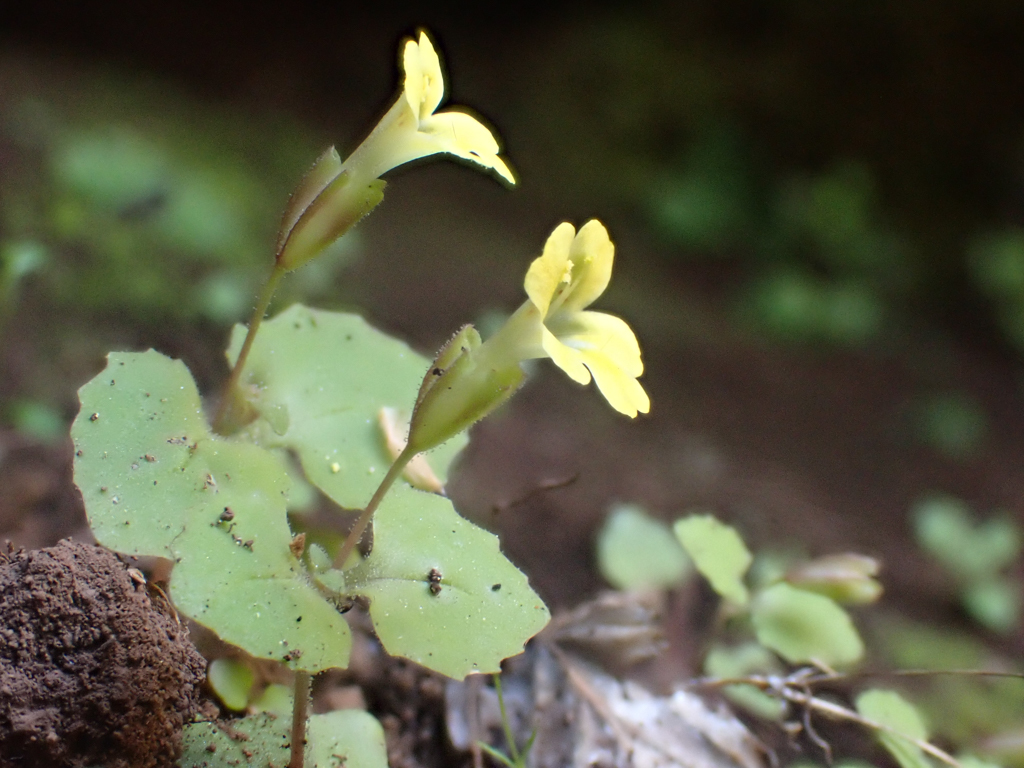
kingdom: Plantae
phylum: Tracheophyta
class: Magnoliopsida
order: Lamiales
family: Phrymaceae
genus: Erythranthe
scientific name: Erythranthe taylorii
